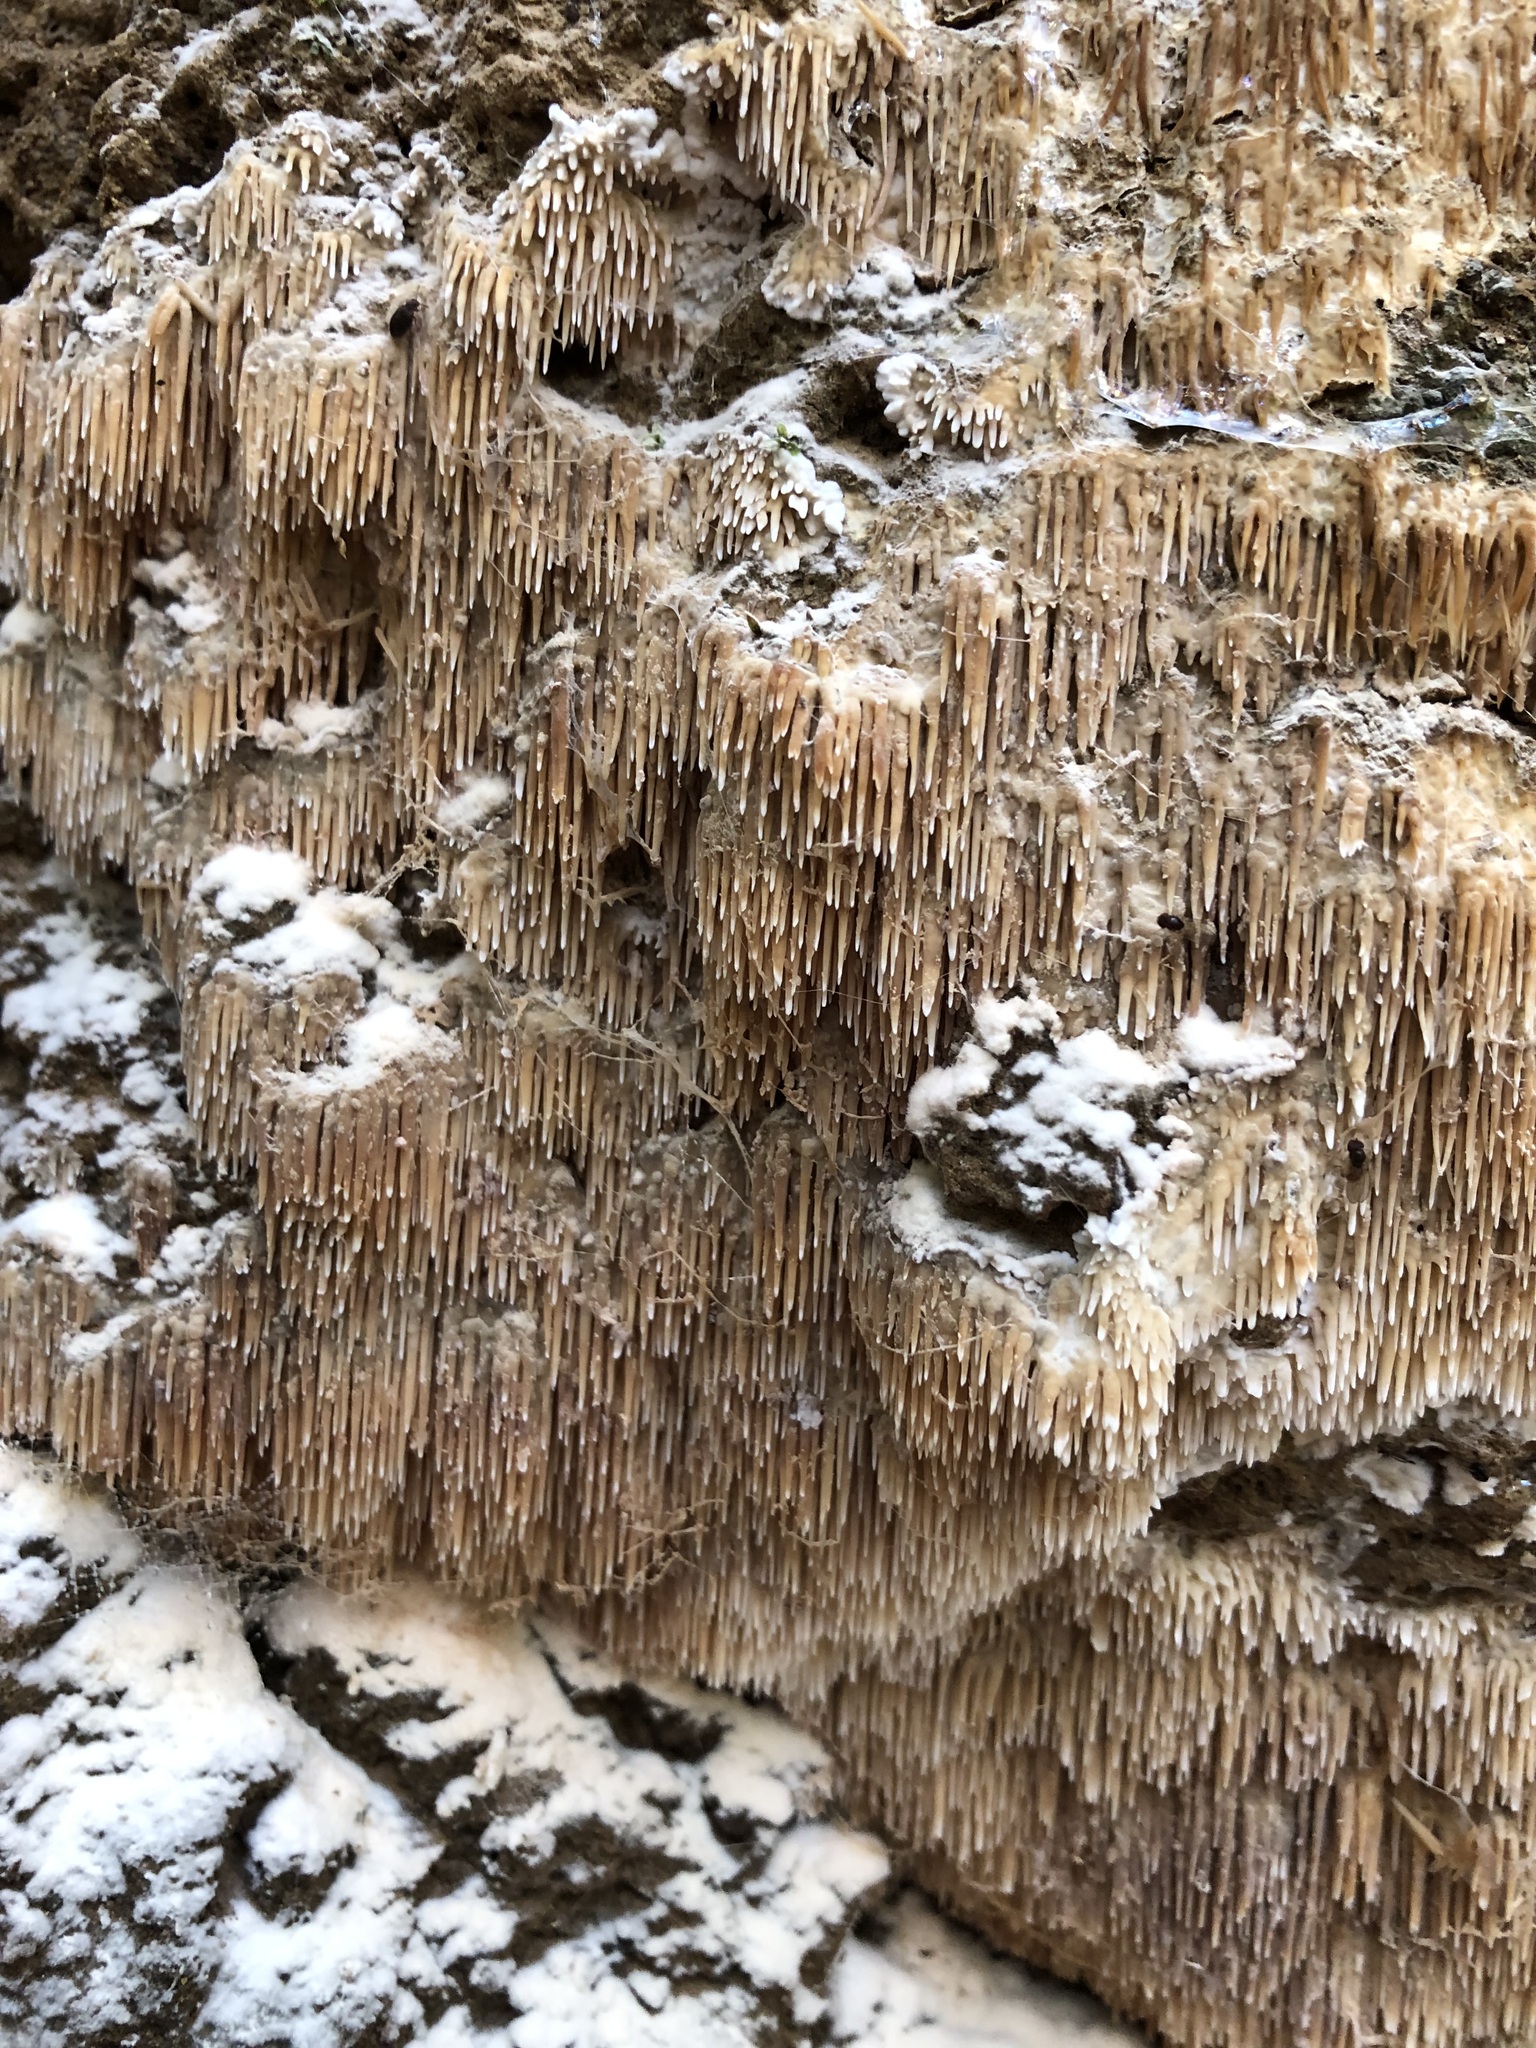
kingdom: Fungi
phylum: Basidiomycota
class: Agaricomycetes
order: Agaricales
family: Radulomycetaceae
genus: Radulomyces
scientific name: Radulomyces copelandii
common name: Asian beauty
